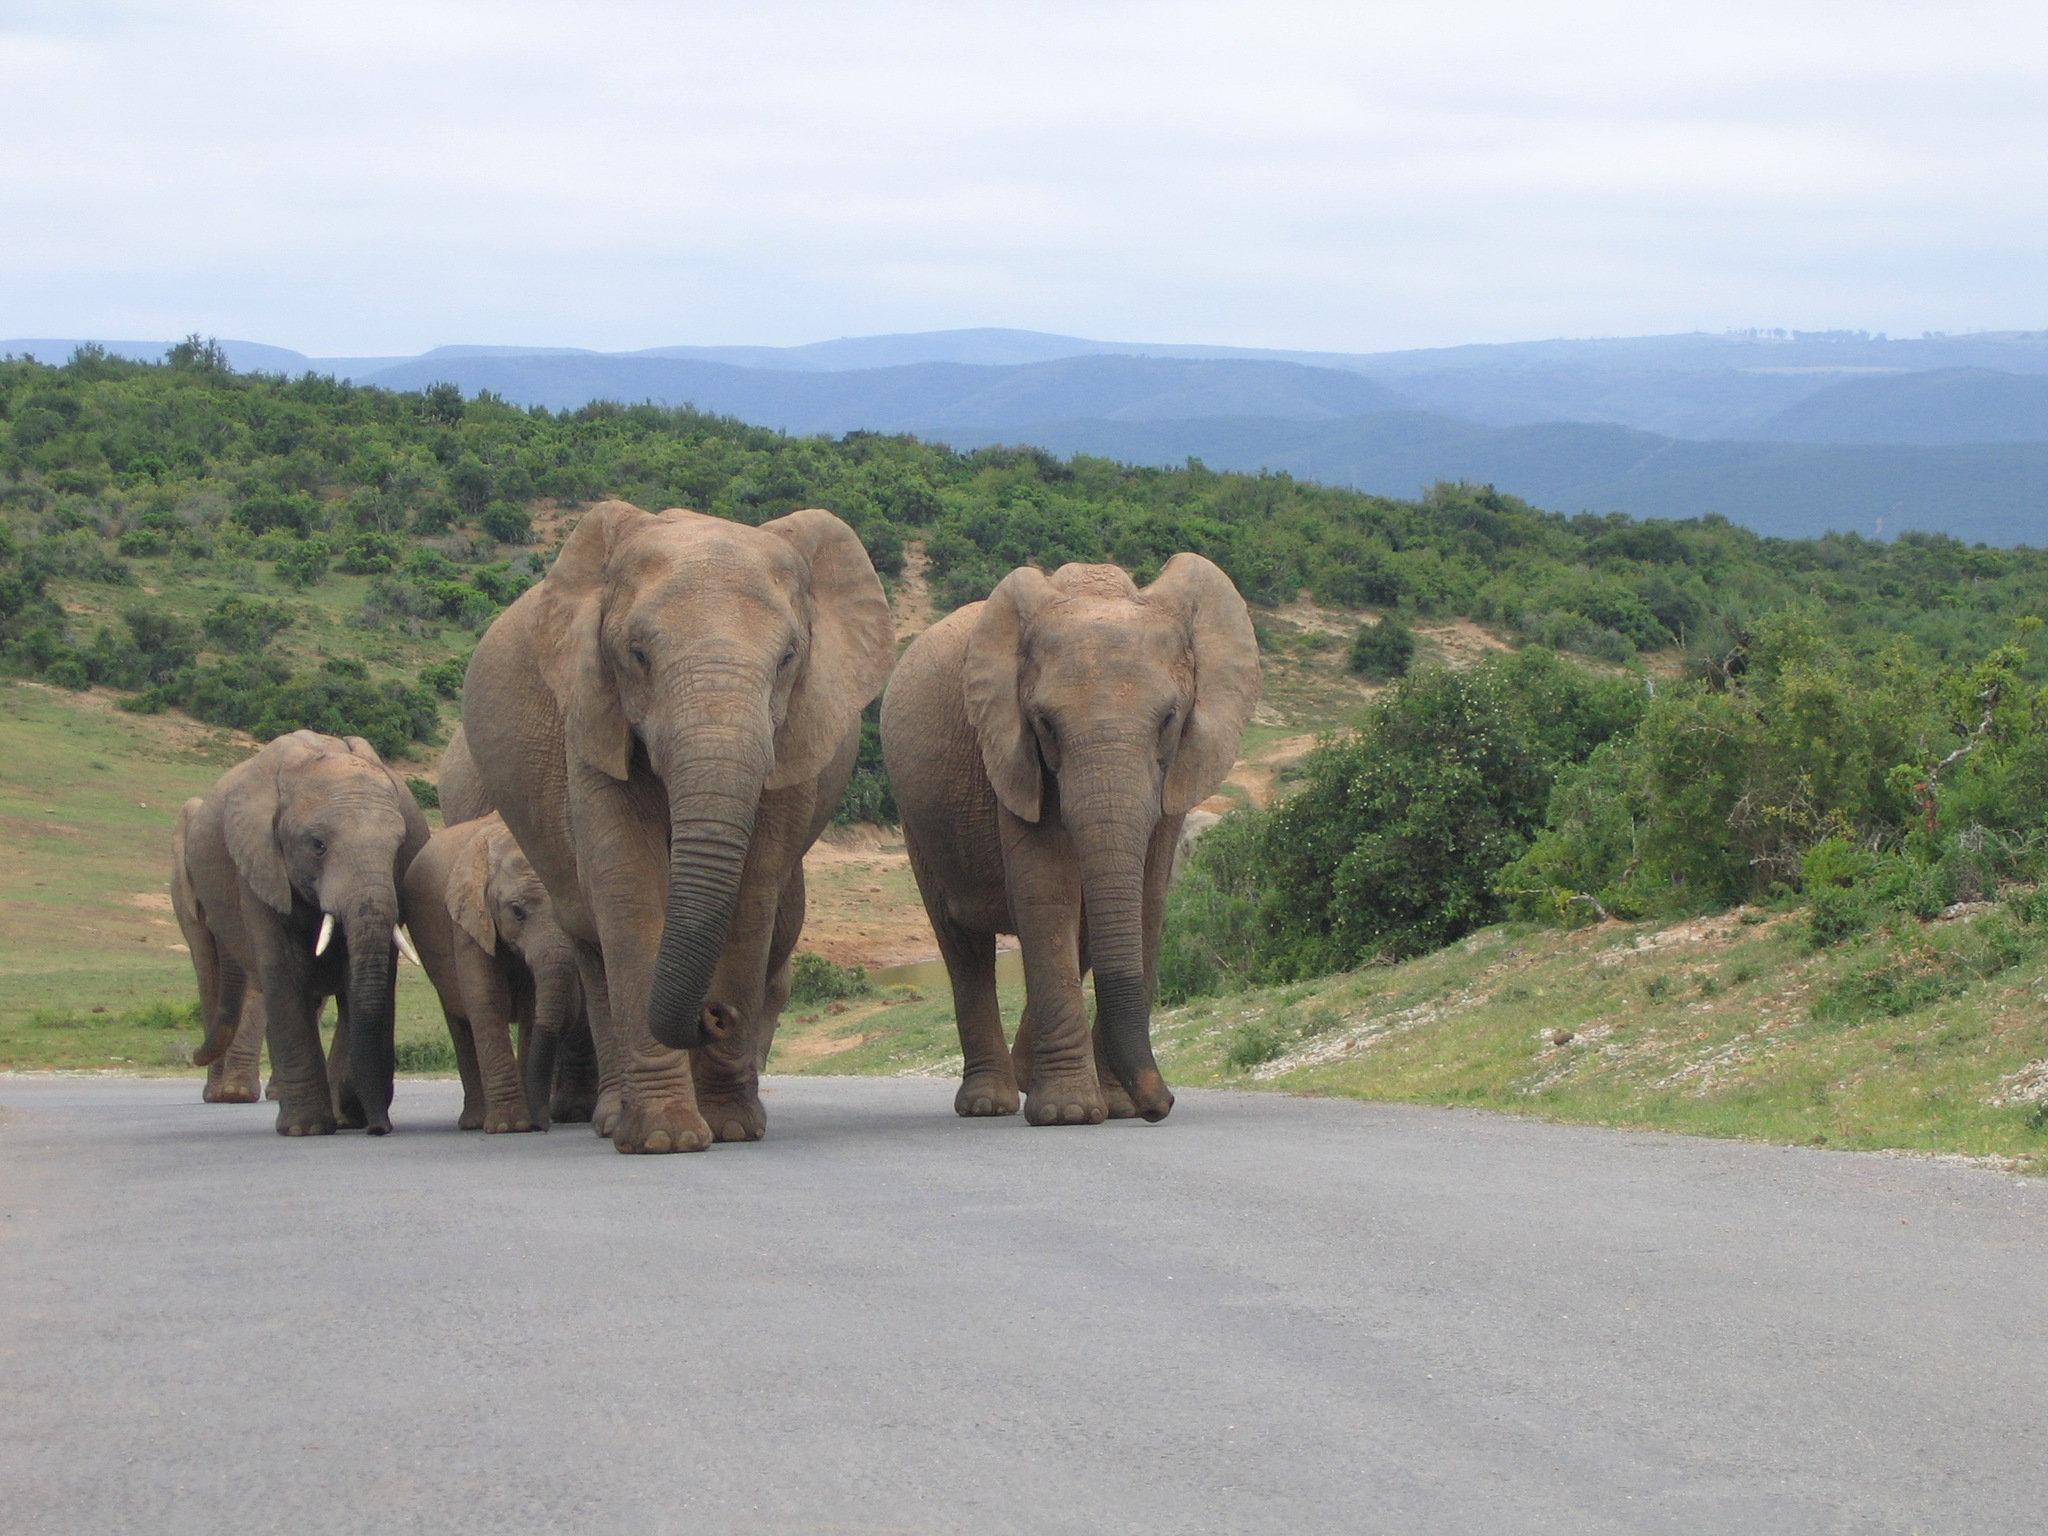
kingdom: Animalia
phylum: Chordata
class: Mammalia
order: Proboscidea
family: Elephantidae
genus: Loxodonta
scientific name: Loxodonta africana
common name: African elephant
